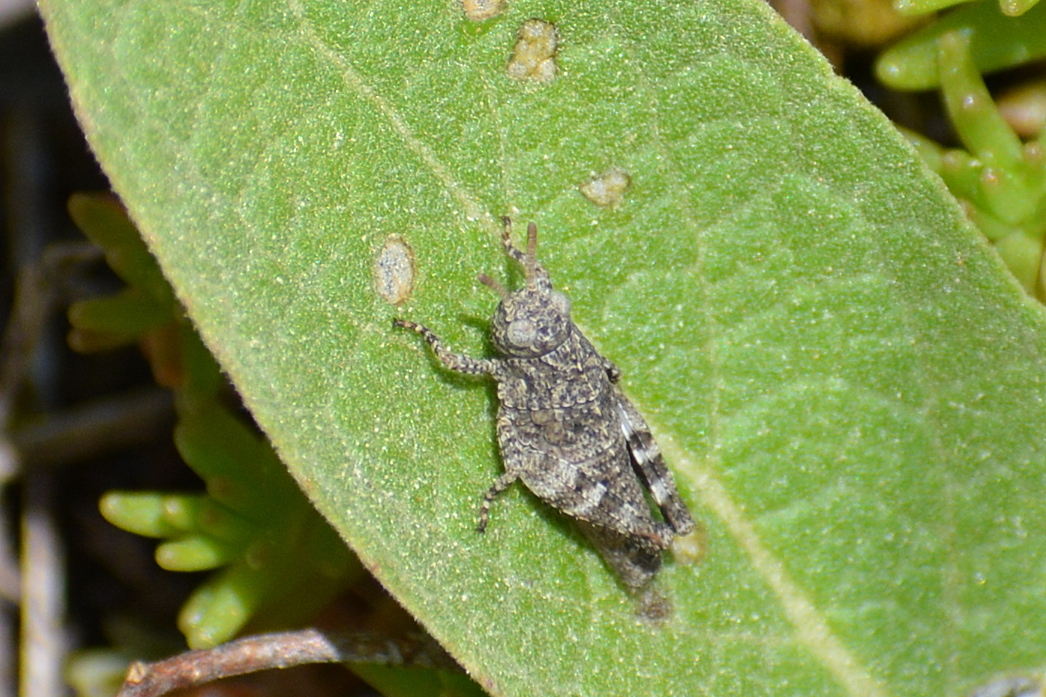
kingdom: Animalia
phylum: Arthropoda
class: Insecta
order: Orthoptera
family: Acrididae
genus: Oedipoda
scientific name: Oedipoda caerulescens
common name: Blue-winged grasshopper
